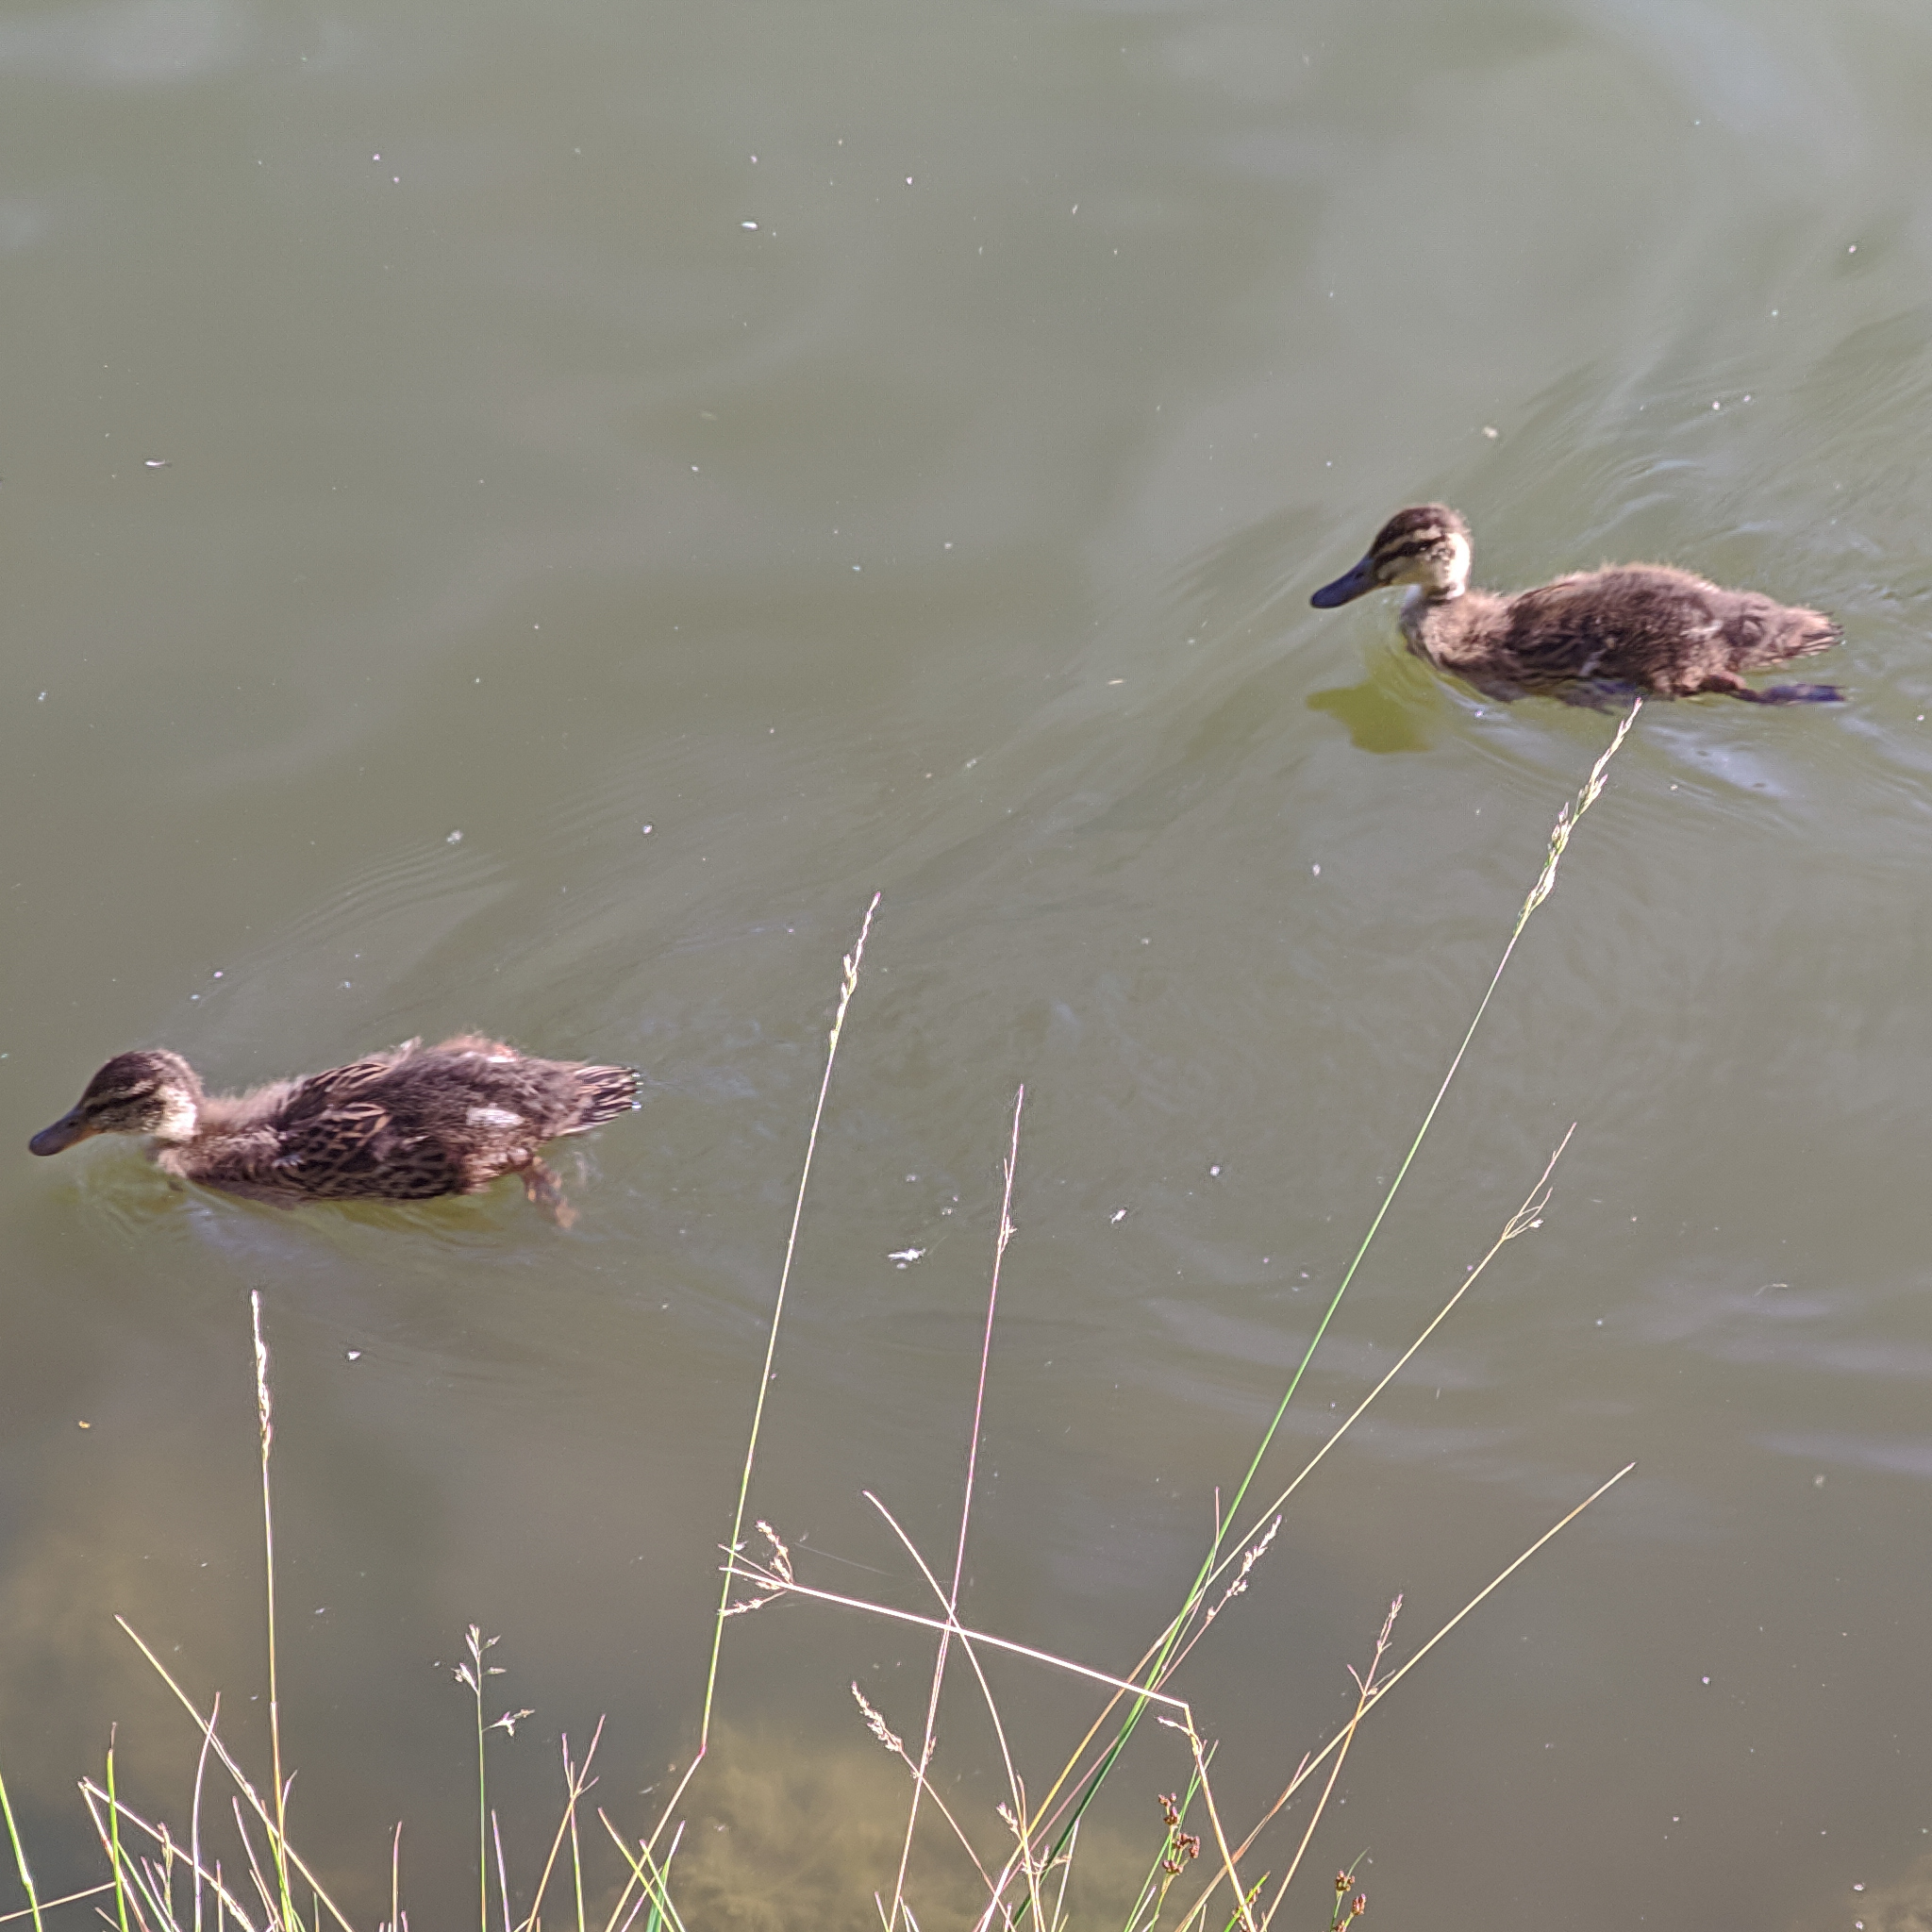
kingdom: Animalia
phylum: Chordata
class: Aves
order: Anseriformes
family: Anatidae
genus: Anas
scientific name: Anas platyrhynchos
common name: Mallard
